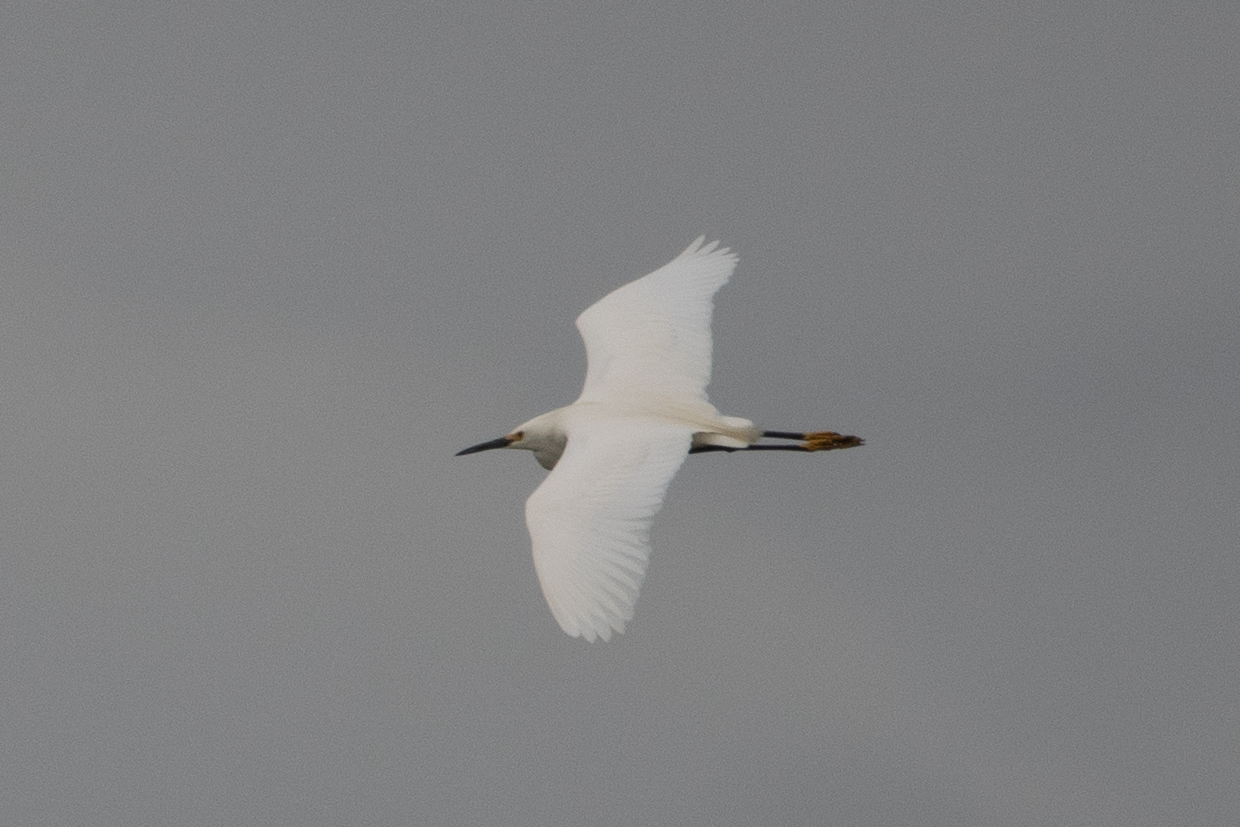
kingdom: Animalia
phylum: Chordata
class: Aves
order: Pelecaniformes
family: Ardeidae
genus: Egretta
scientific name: Egretta thula
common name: Snowy egret
